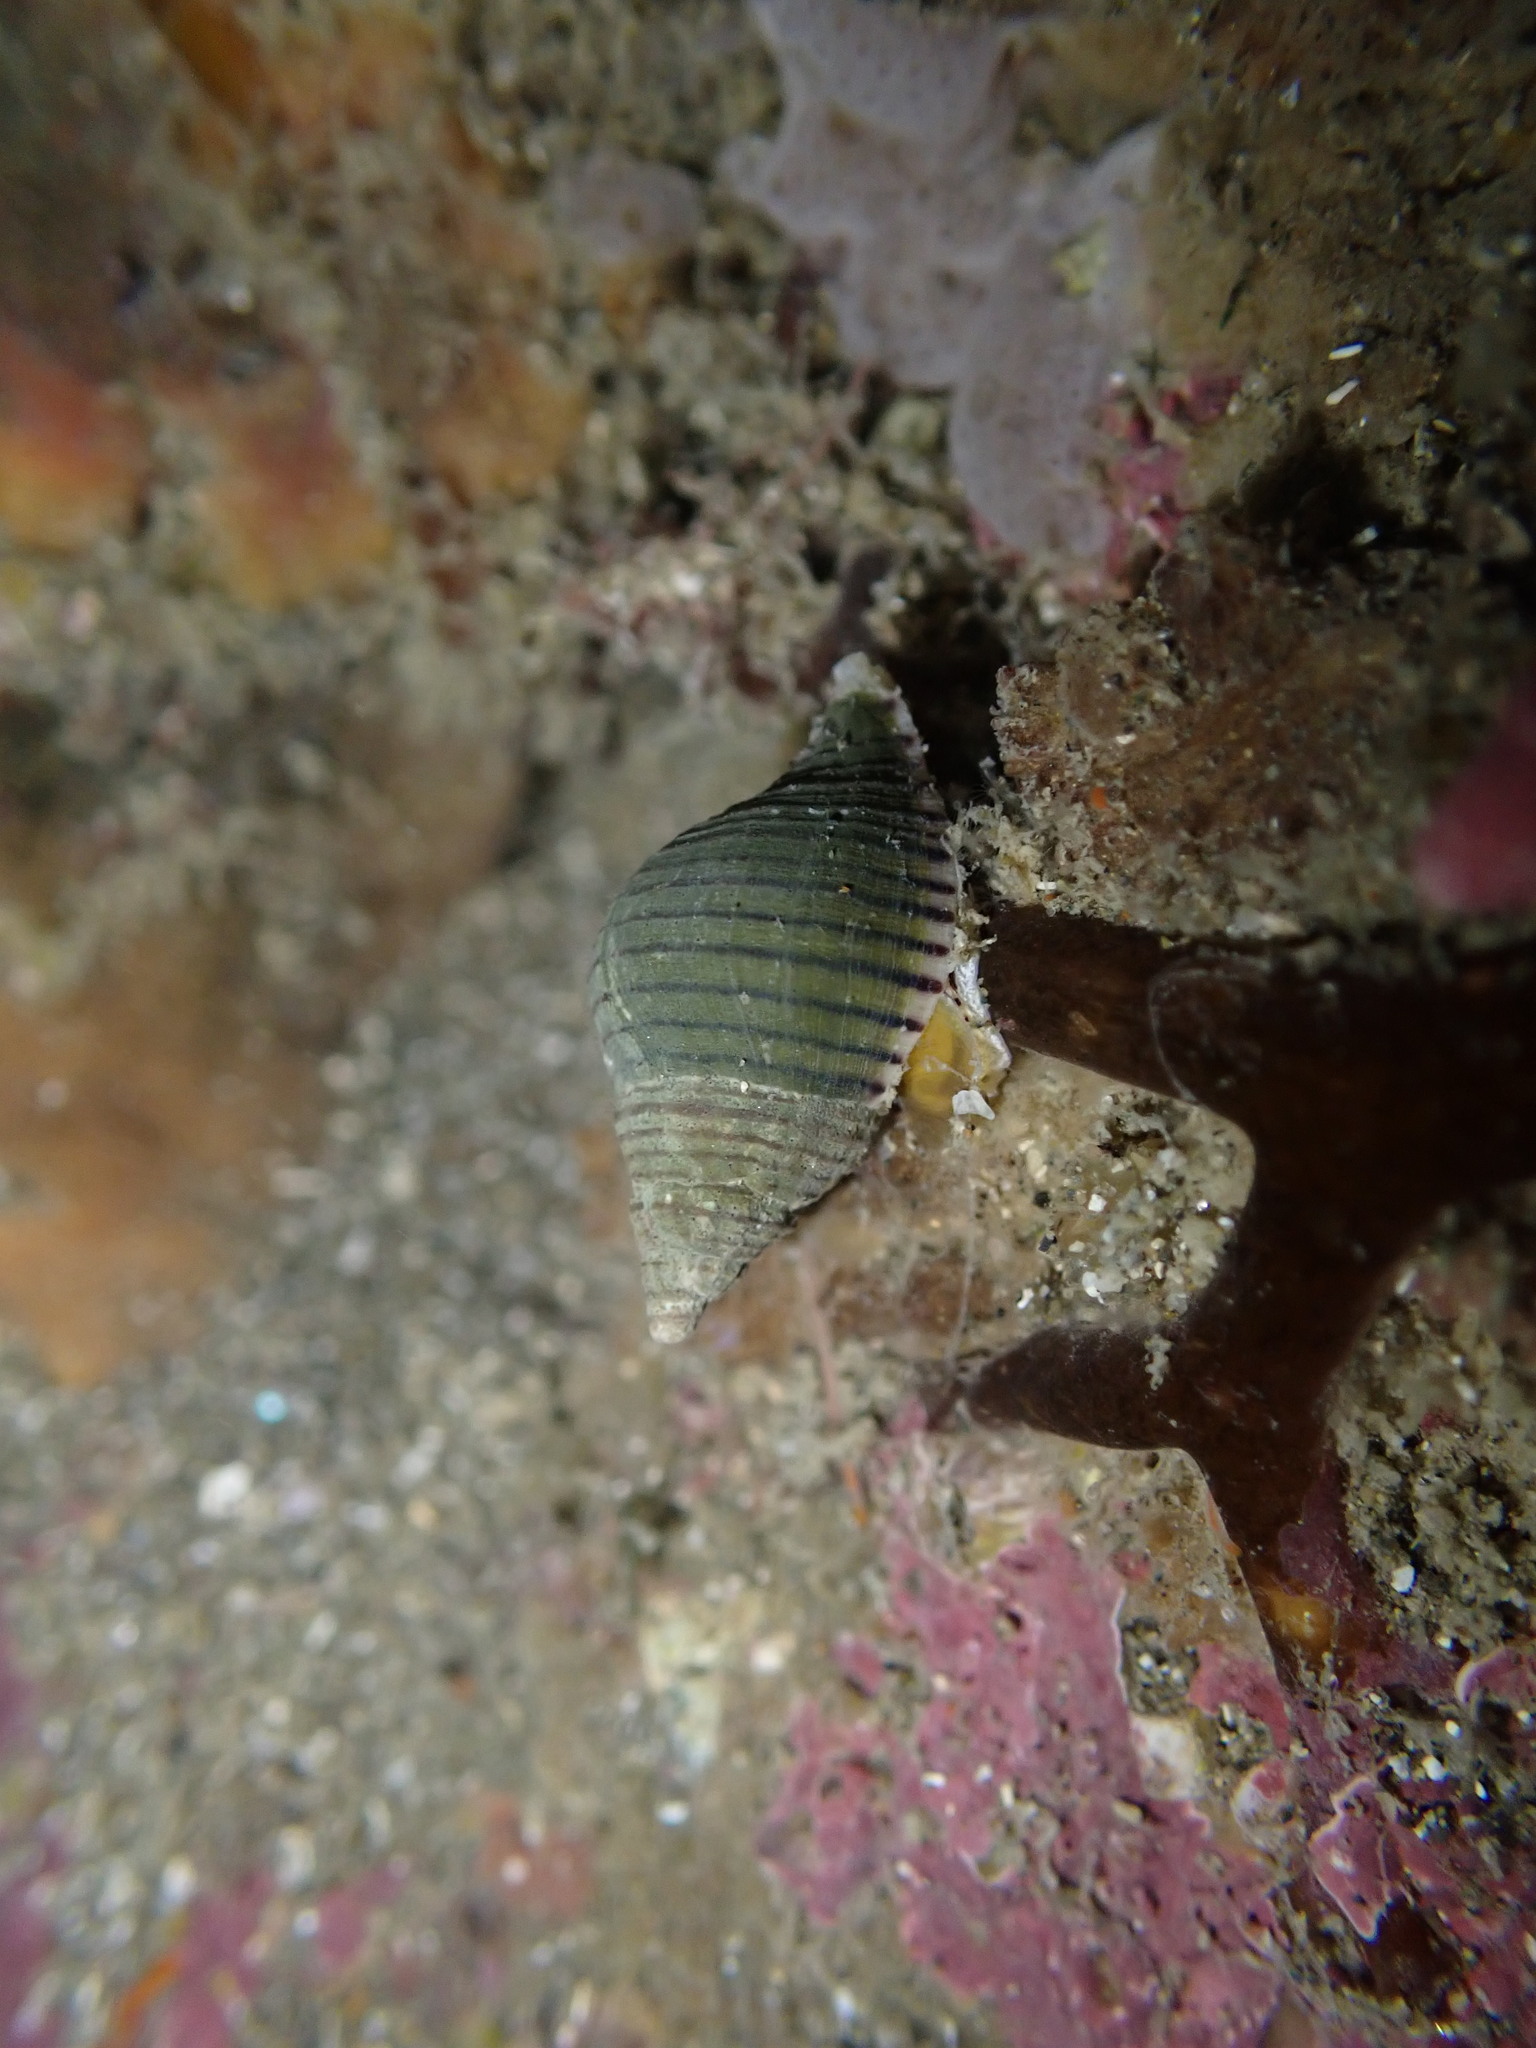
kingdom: Animalia
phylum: Mollusca
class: Gastropoda
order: Neogastropoda
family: Tudiclidae
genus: Buccinulum
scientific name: Buccinulum linea
